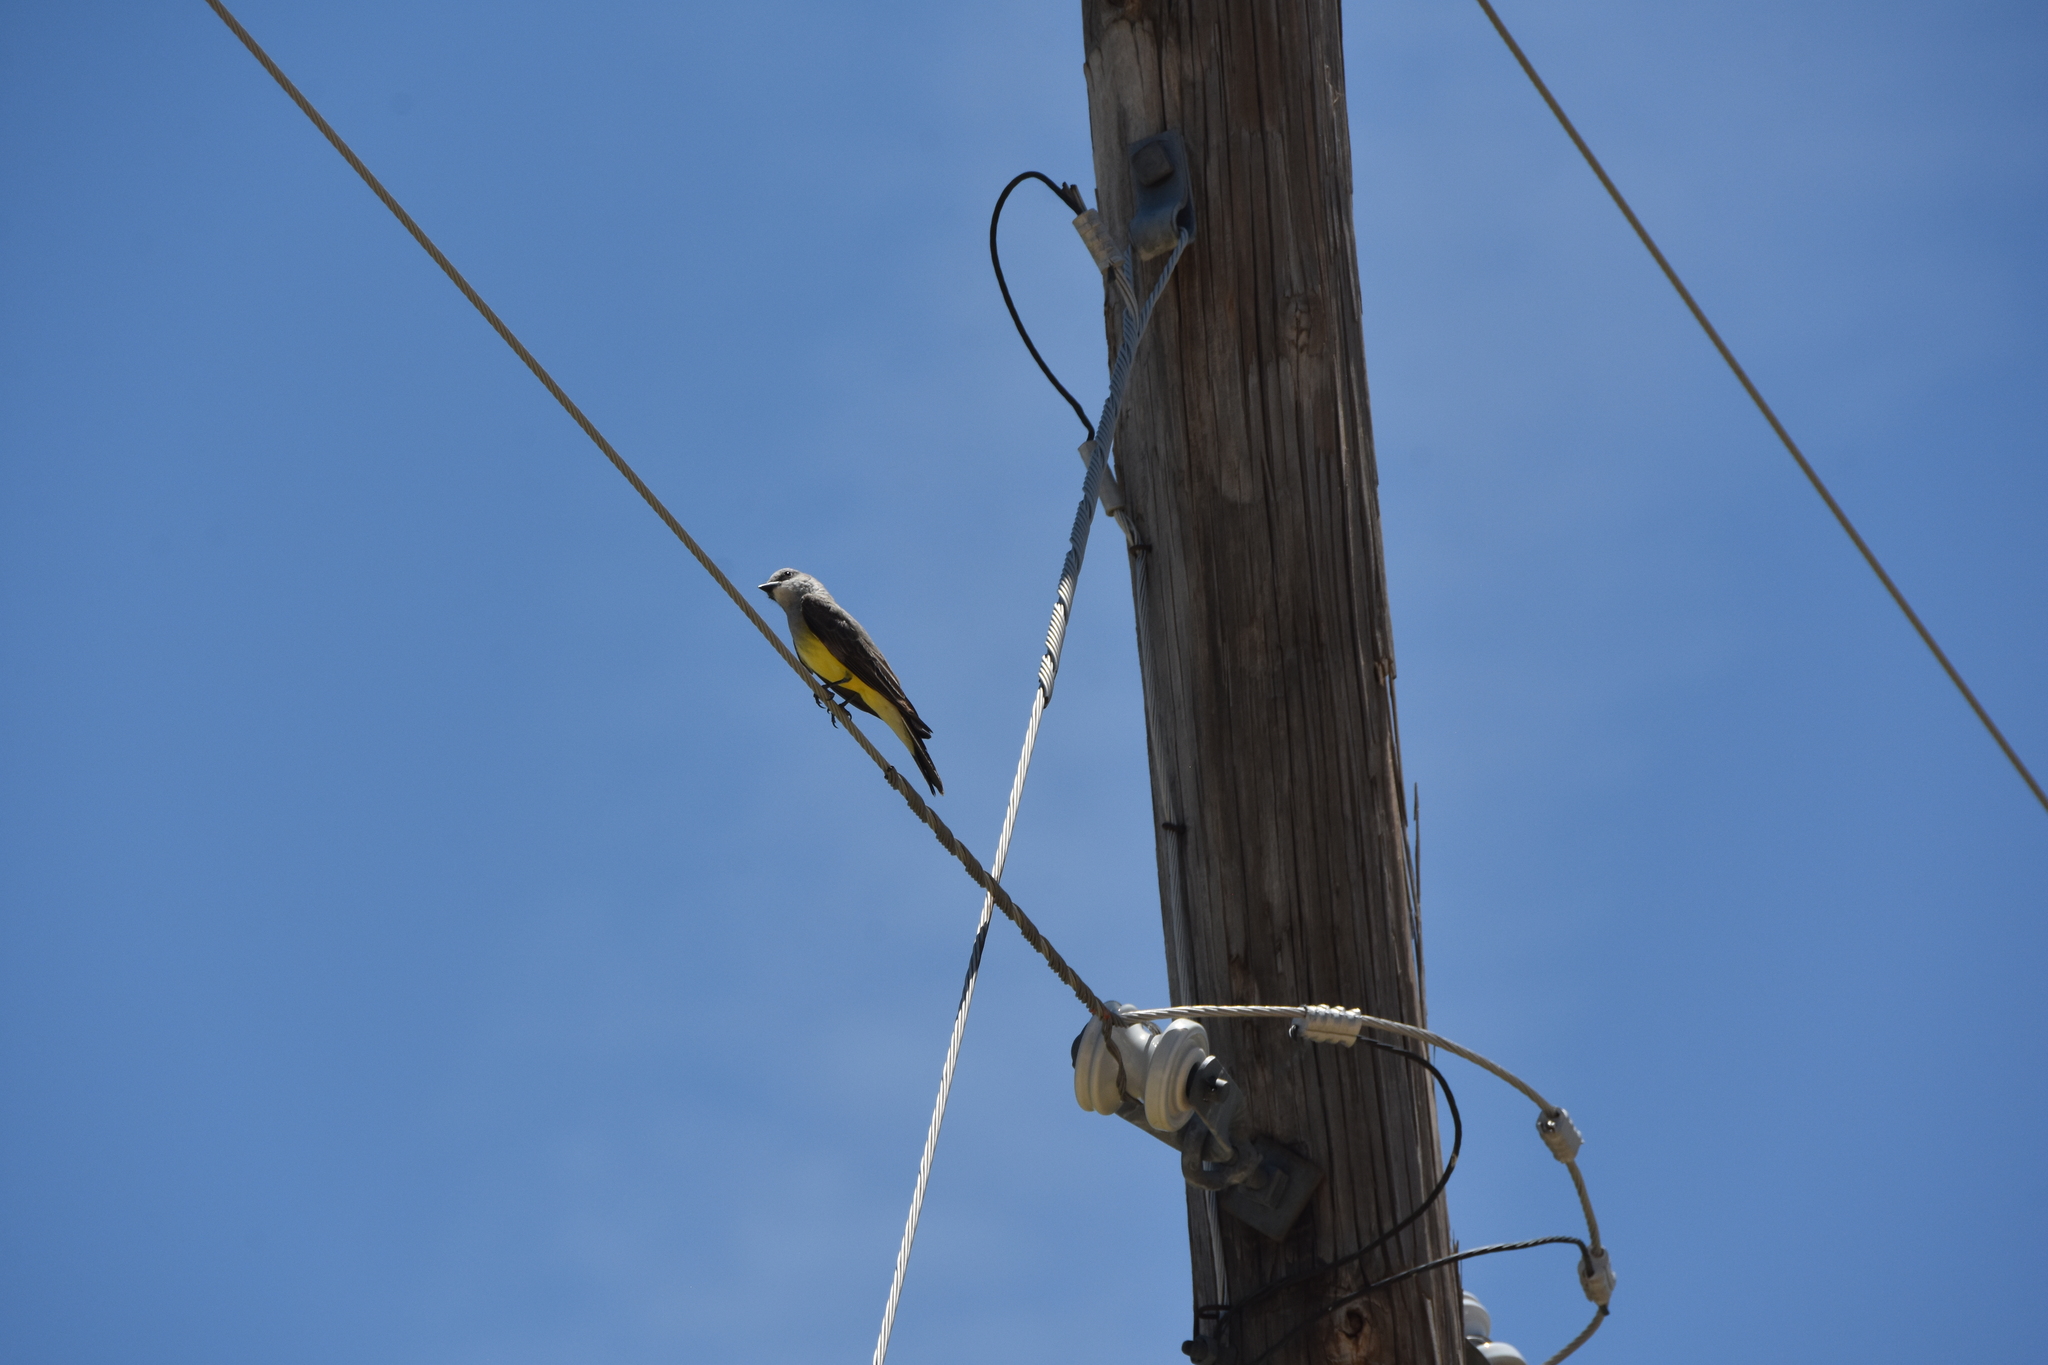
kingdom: Animalia
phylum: Chordata
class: Aves
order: Passeriformes
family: Tyrannidae
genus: Tyrannus
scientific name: Tyrannus verticalis
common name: Western kingbird
